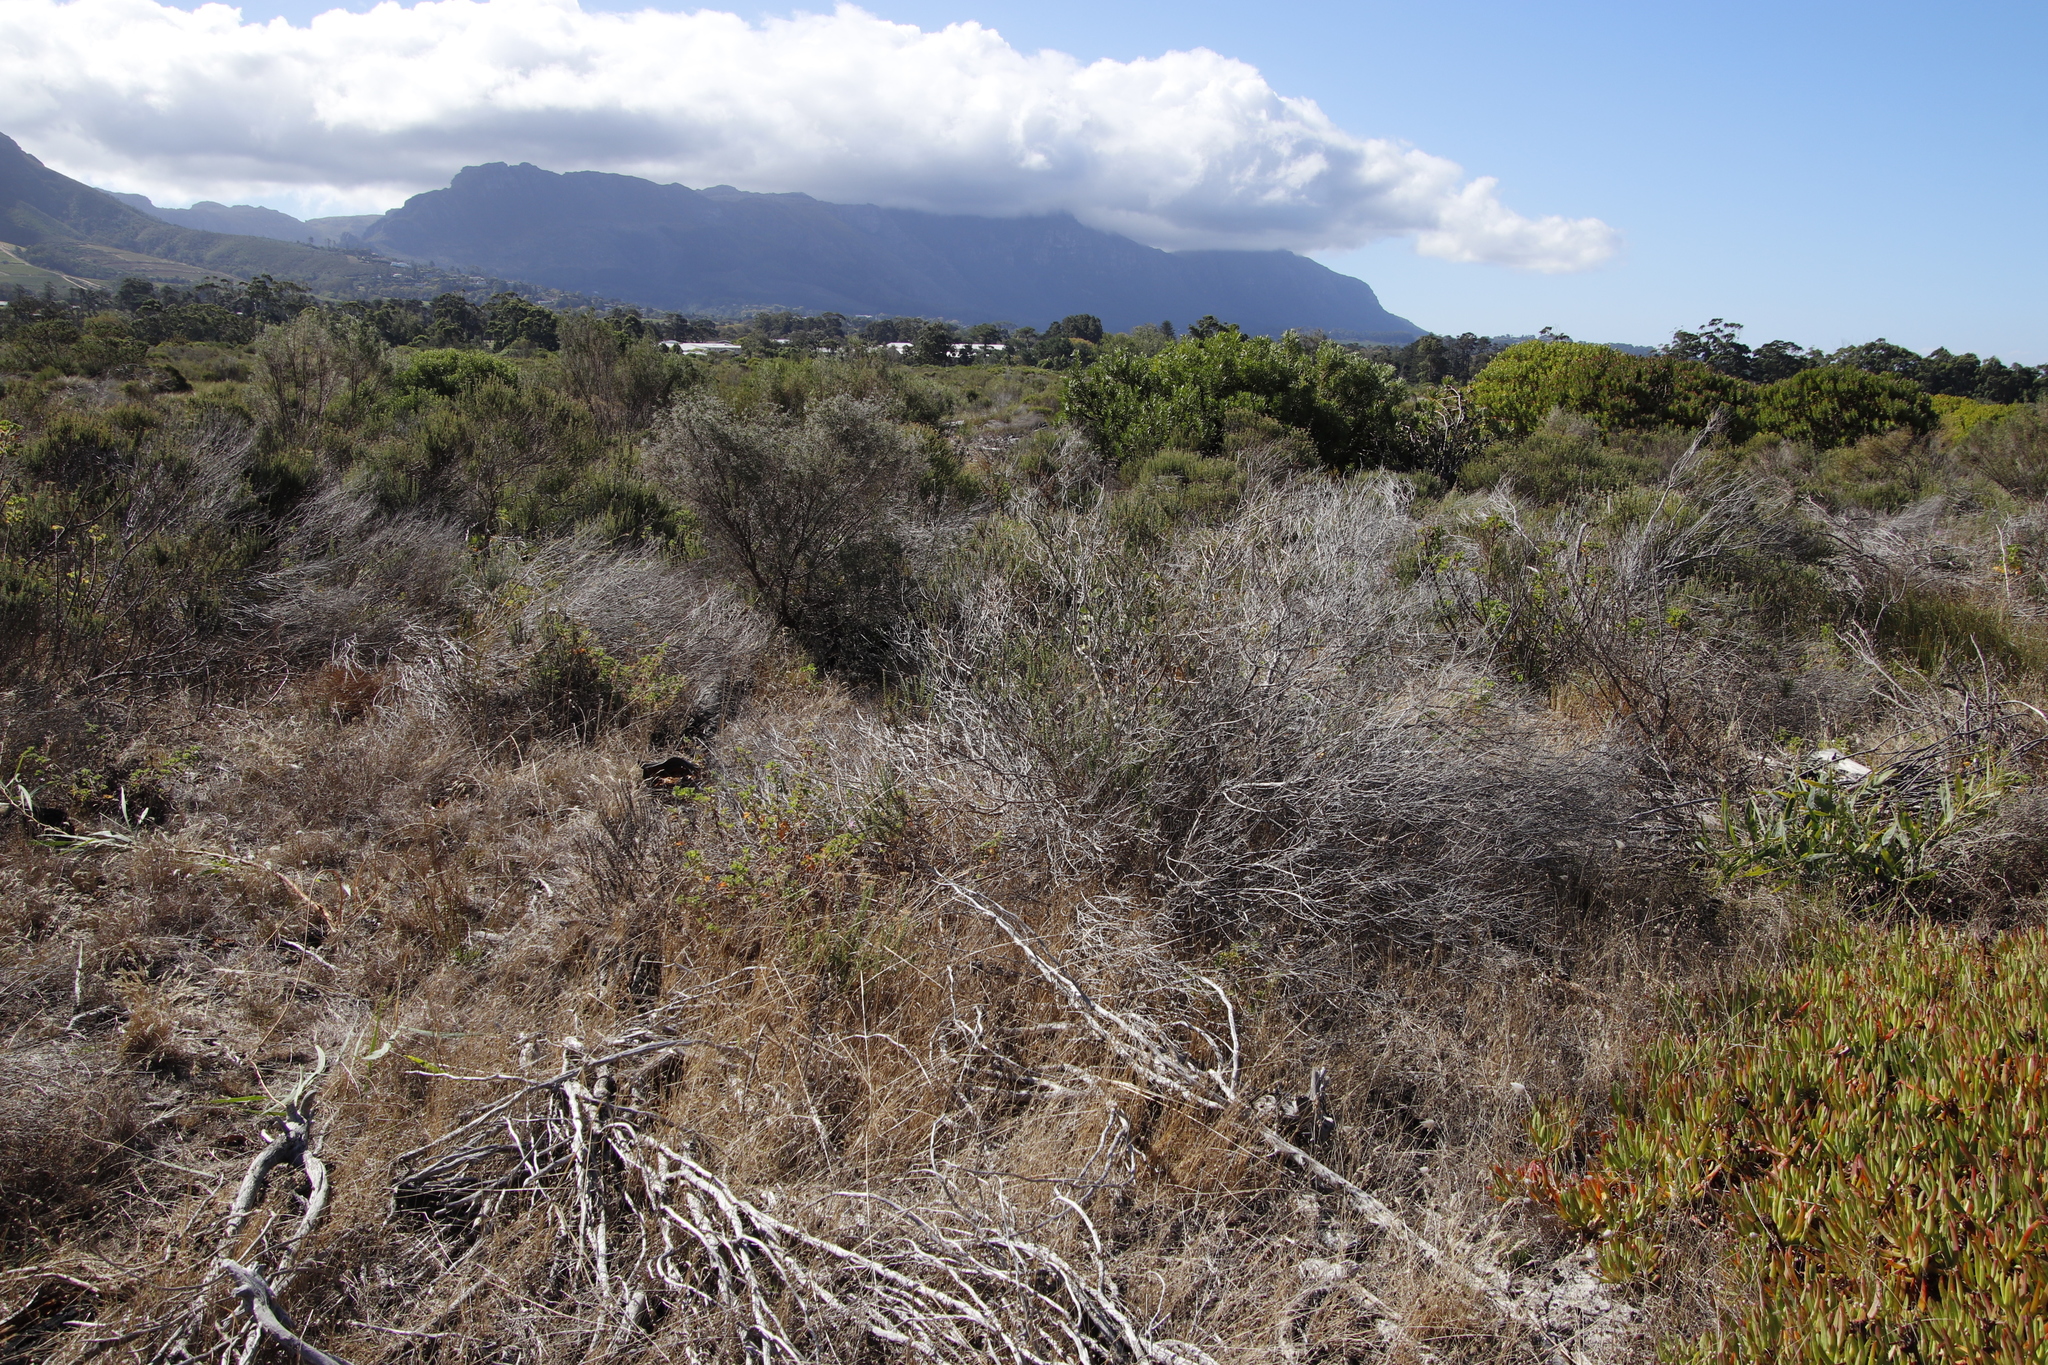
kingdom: Plantae
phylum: Tracheophyta
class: Magnoliopsida
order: Asterales
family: Asteraceae
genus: Metalasia
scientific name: Metalasia densa
